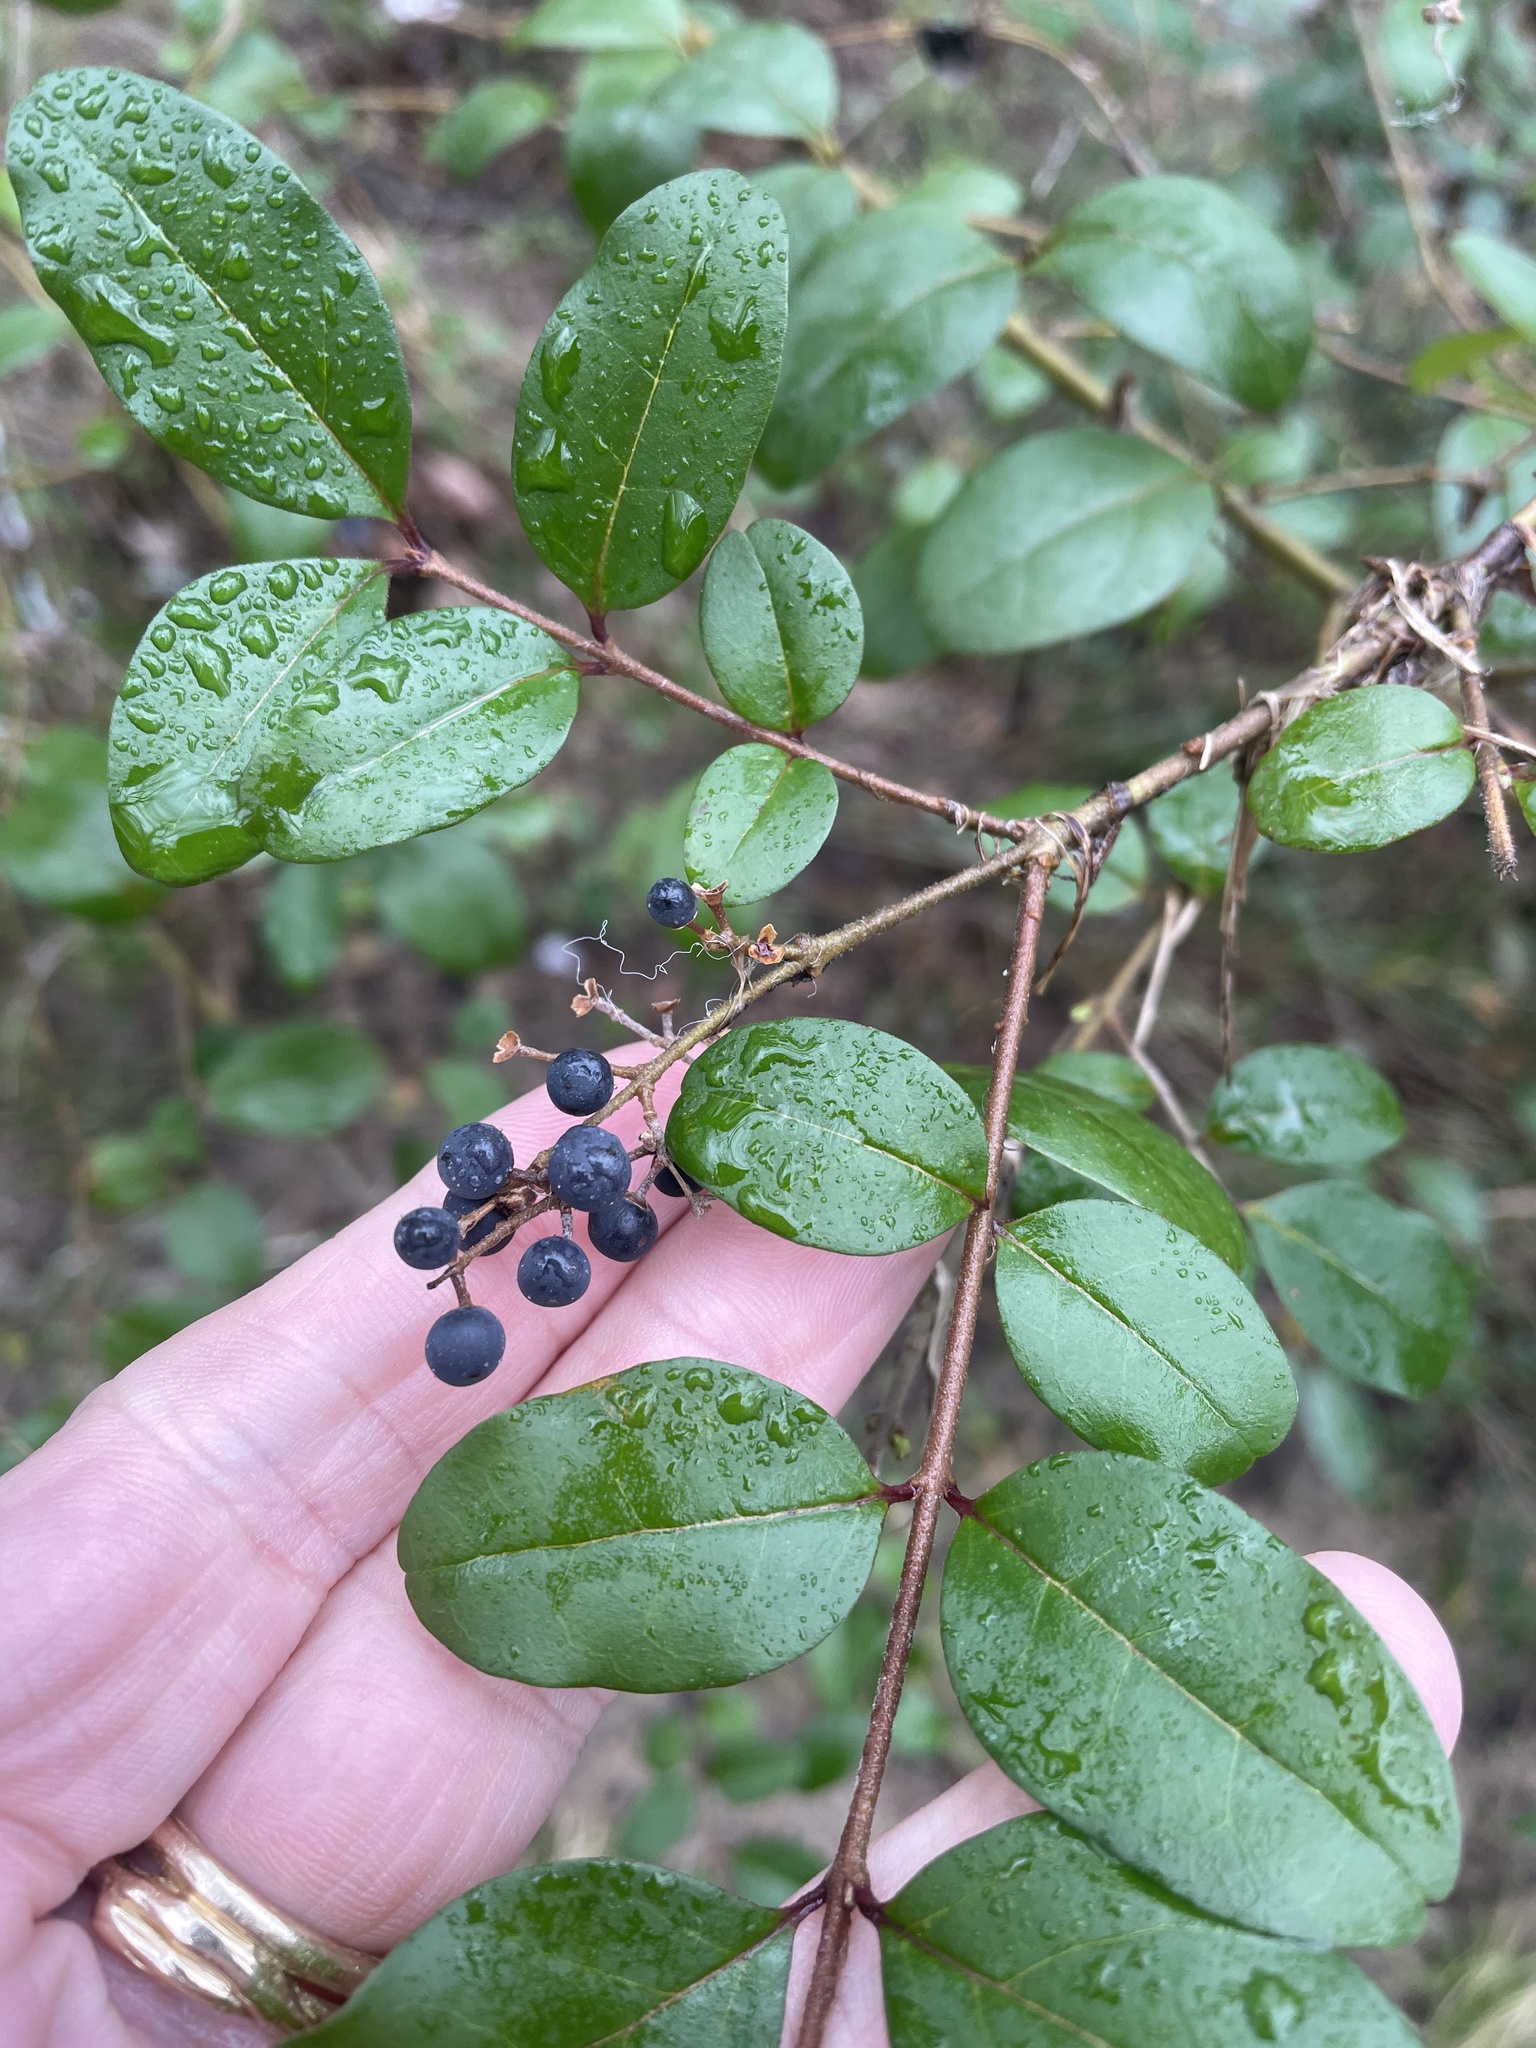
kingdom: Plantae
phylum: Tracheophyta
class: Magnoliopsida
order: Lamiales
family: Oleaceae
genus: Ligustrum
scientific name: Ligustrum sinense
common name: Chinese privet
